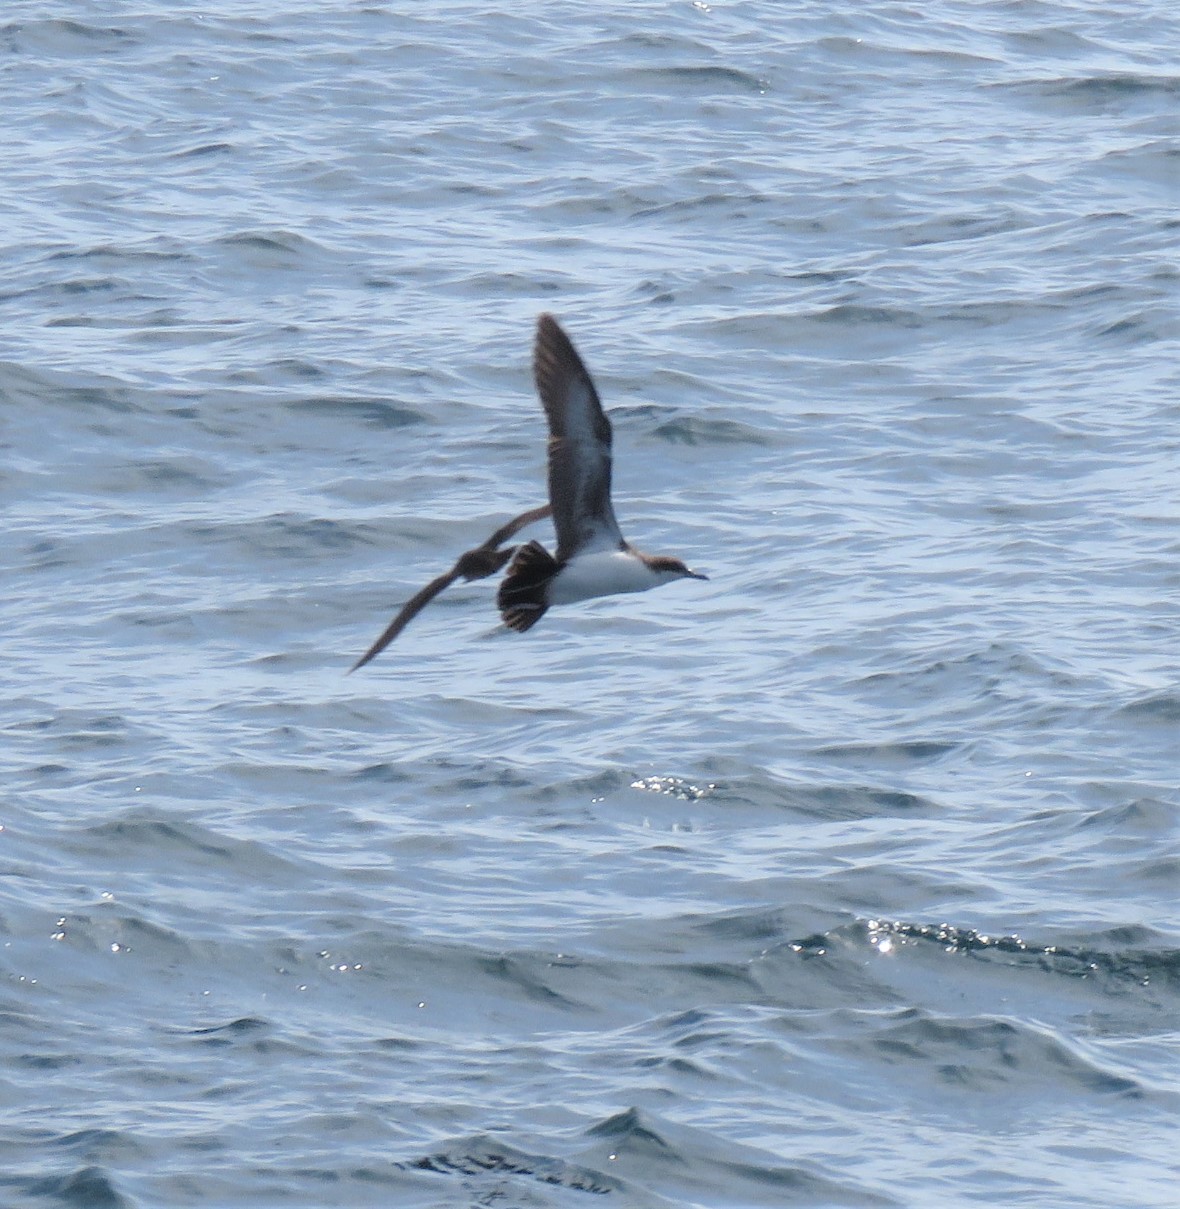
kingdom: Animalia
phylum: Chordata
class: Aves
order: Procellariiformes
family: Procellariidae
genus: Puffinus
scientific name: Puffinus subalaris
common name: Galapagos shearwater
